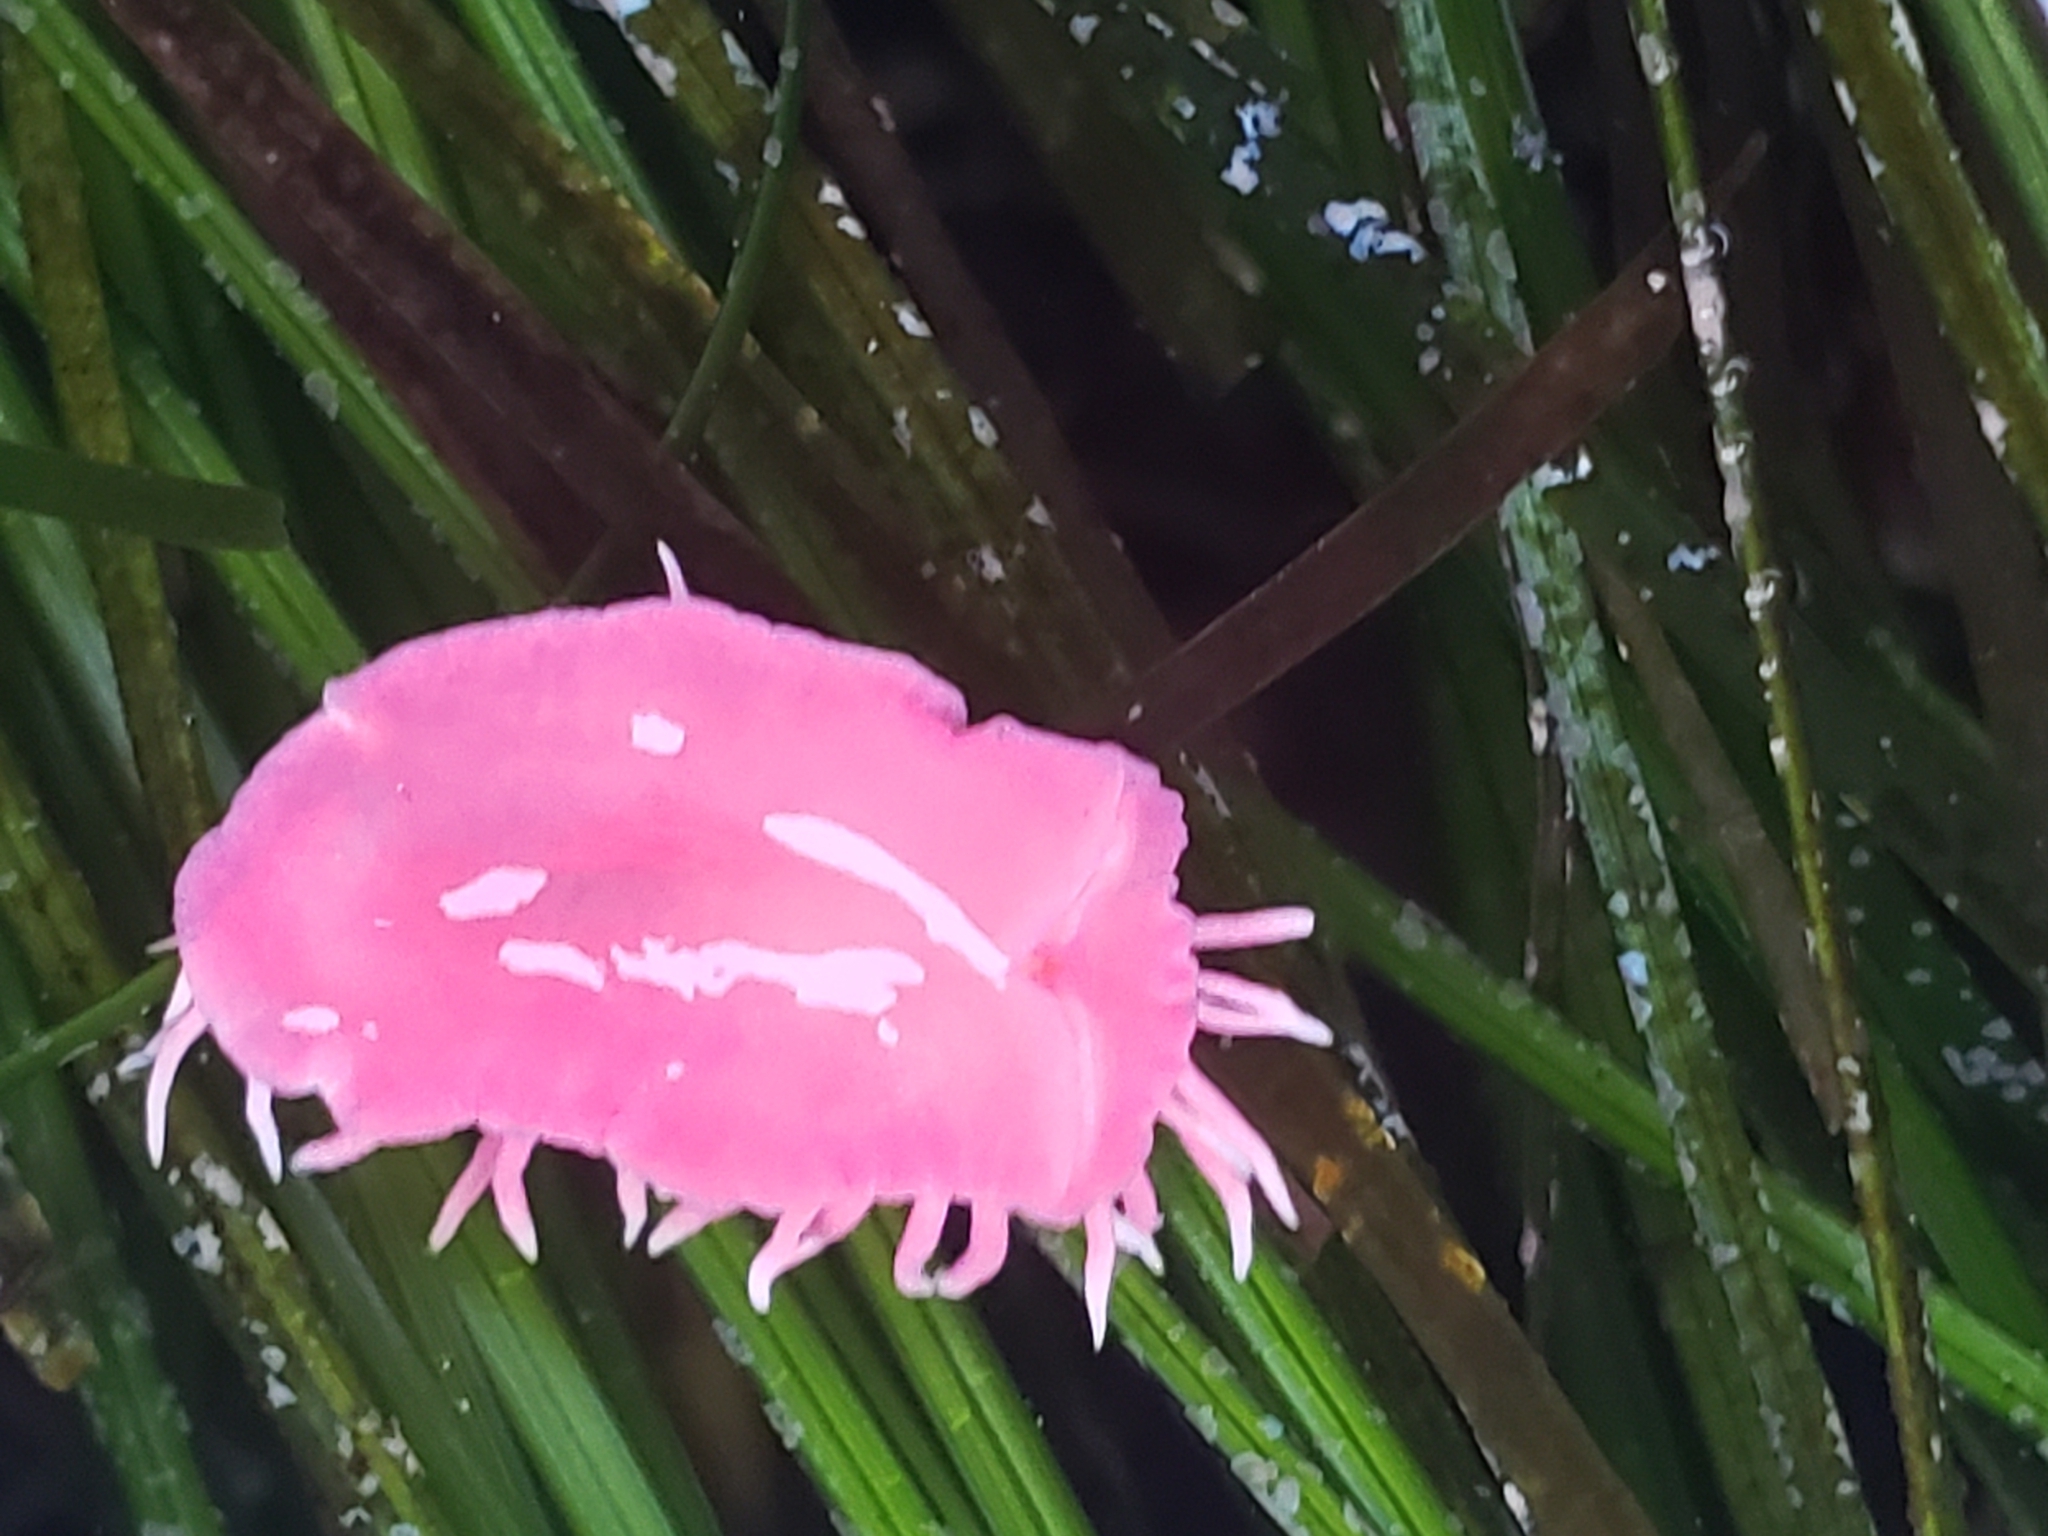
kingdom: Animalia
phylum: Mollusca
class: Gastropoda
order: Nudibranchia
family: Goniodorididae
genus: Okenia
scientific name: Okenia
